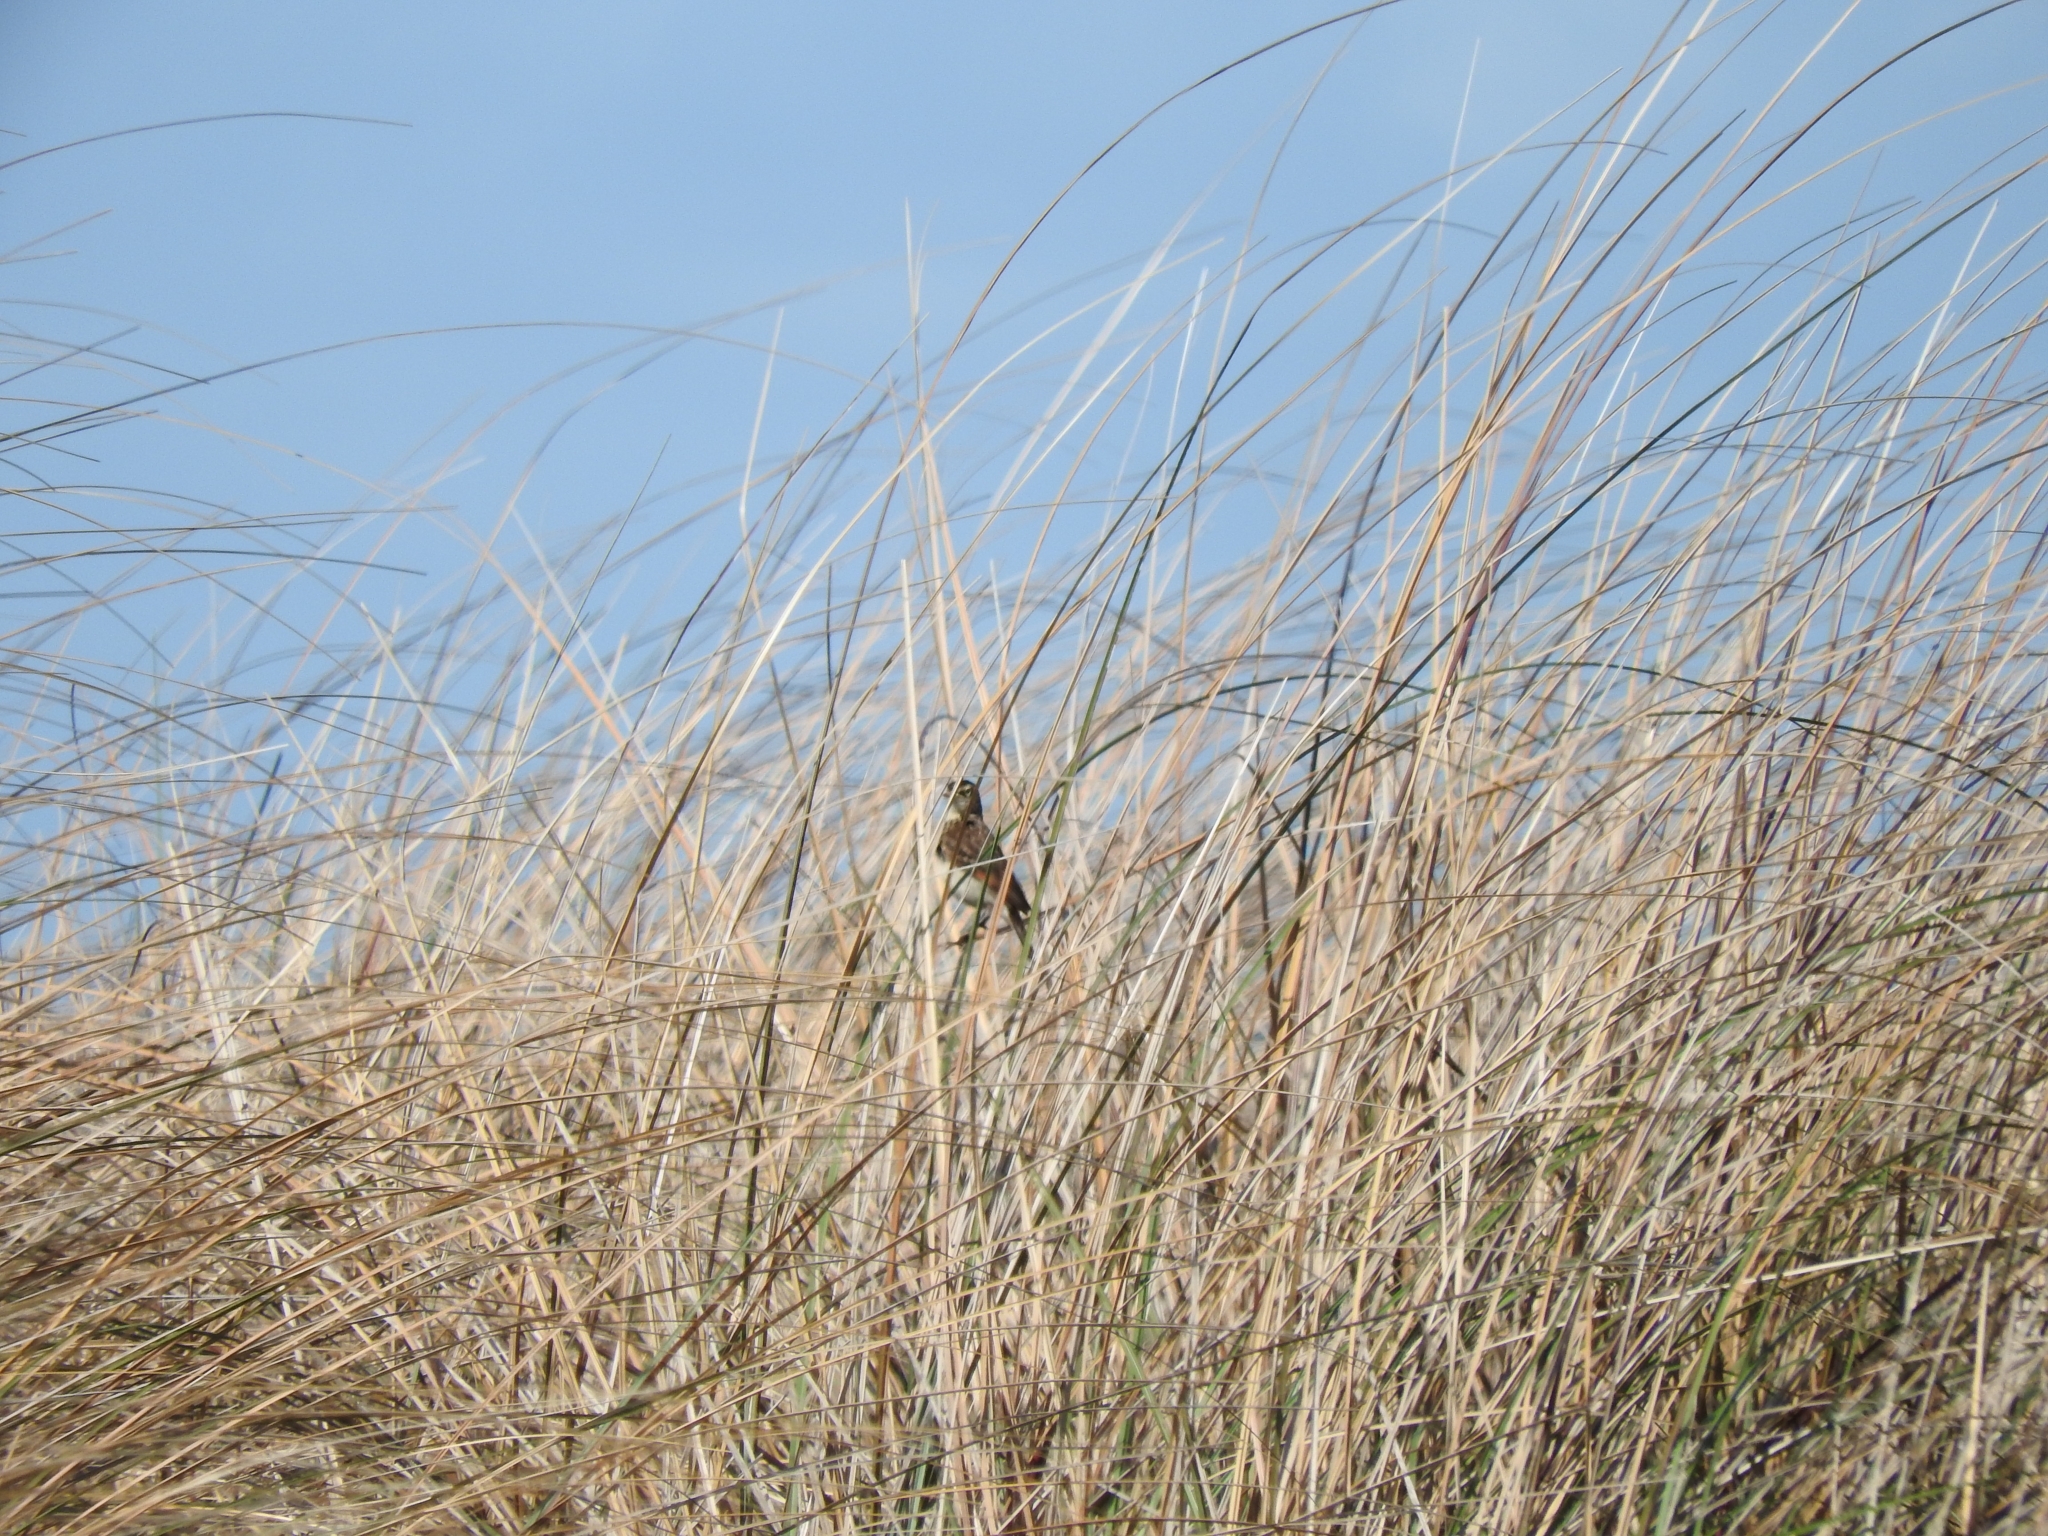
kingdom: Animalia
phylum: Chordata
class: Aves
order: Passeriformes
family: Tyrannidae
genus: Hymenops
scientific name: Hymenops perspicillatus
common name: Spectacled tyrant
